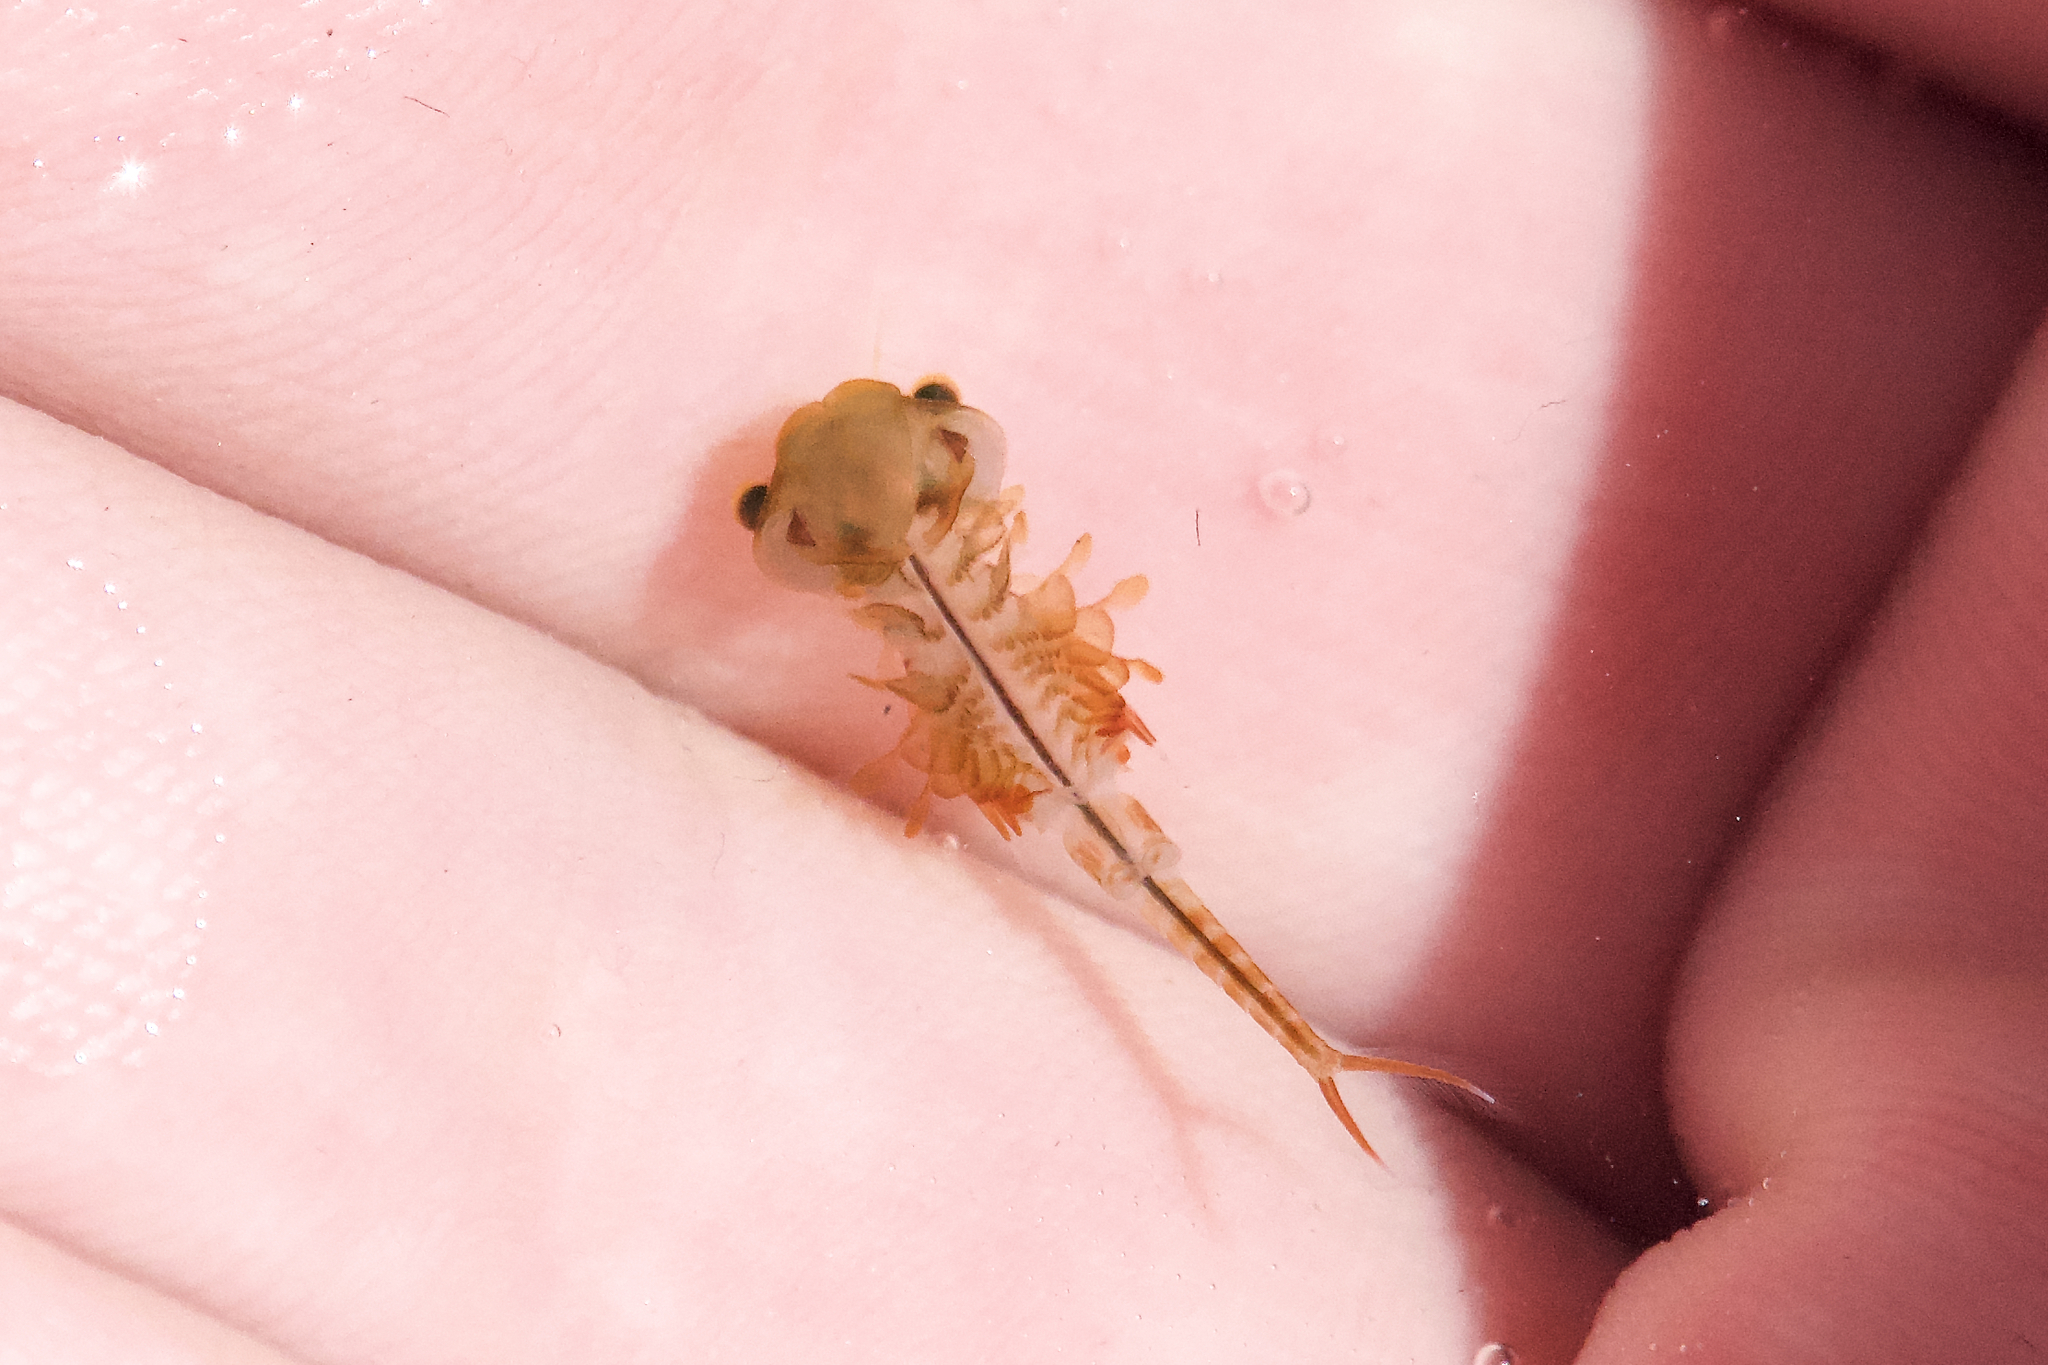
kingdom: Animalia
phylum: Arthropoda
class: Branchiopoda
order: Anostraca
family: Chirocephalidae
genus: Eubranchipus
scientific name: Eubranchipus bundyi
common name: Knob-lip fairy shrimp
